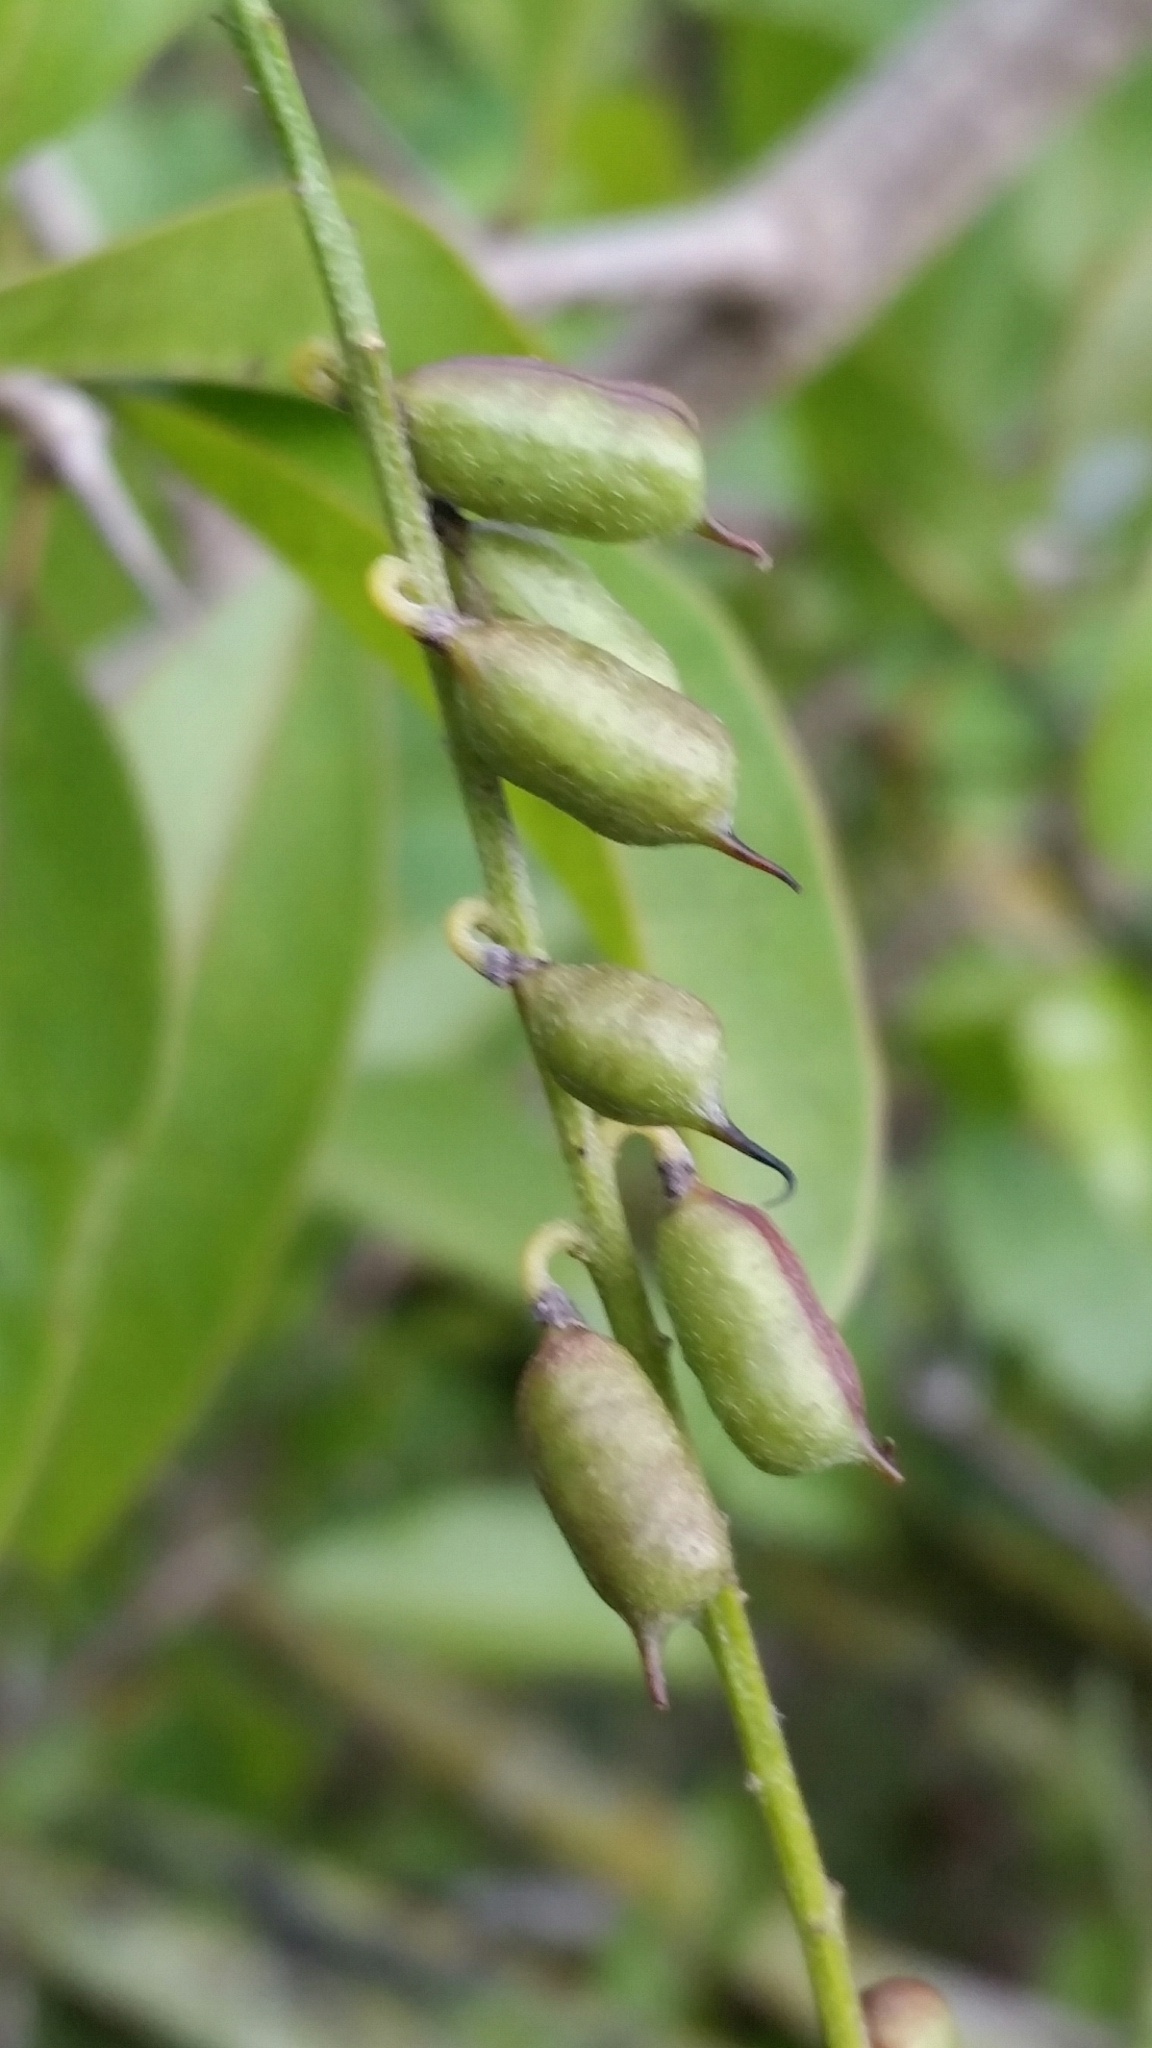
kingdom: Plantae
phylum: Tracheophyta
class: Magnoliopsida
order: Fabales
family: Fabaceae
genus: Indigofera
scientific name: Indigofera caroliniana
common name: Wild indigo
